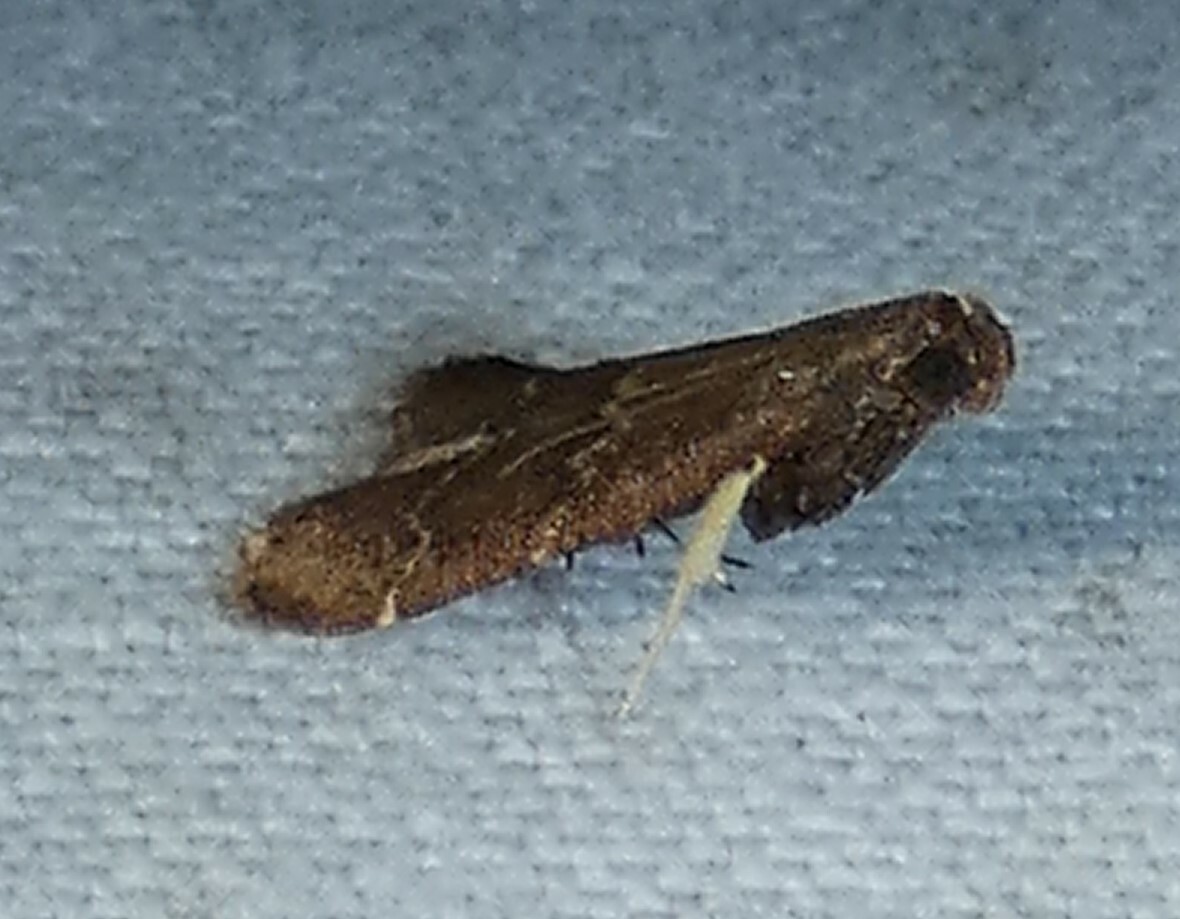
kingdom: Animalia
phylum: Arthropoda
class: Insecta
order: Lepidoptera
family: Pyralidae
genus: Arta
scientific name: Arta
